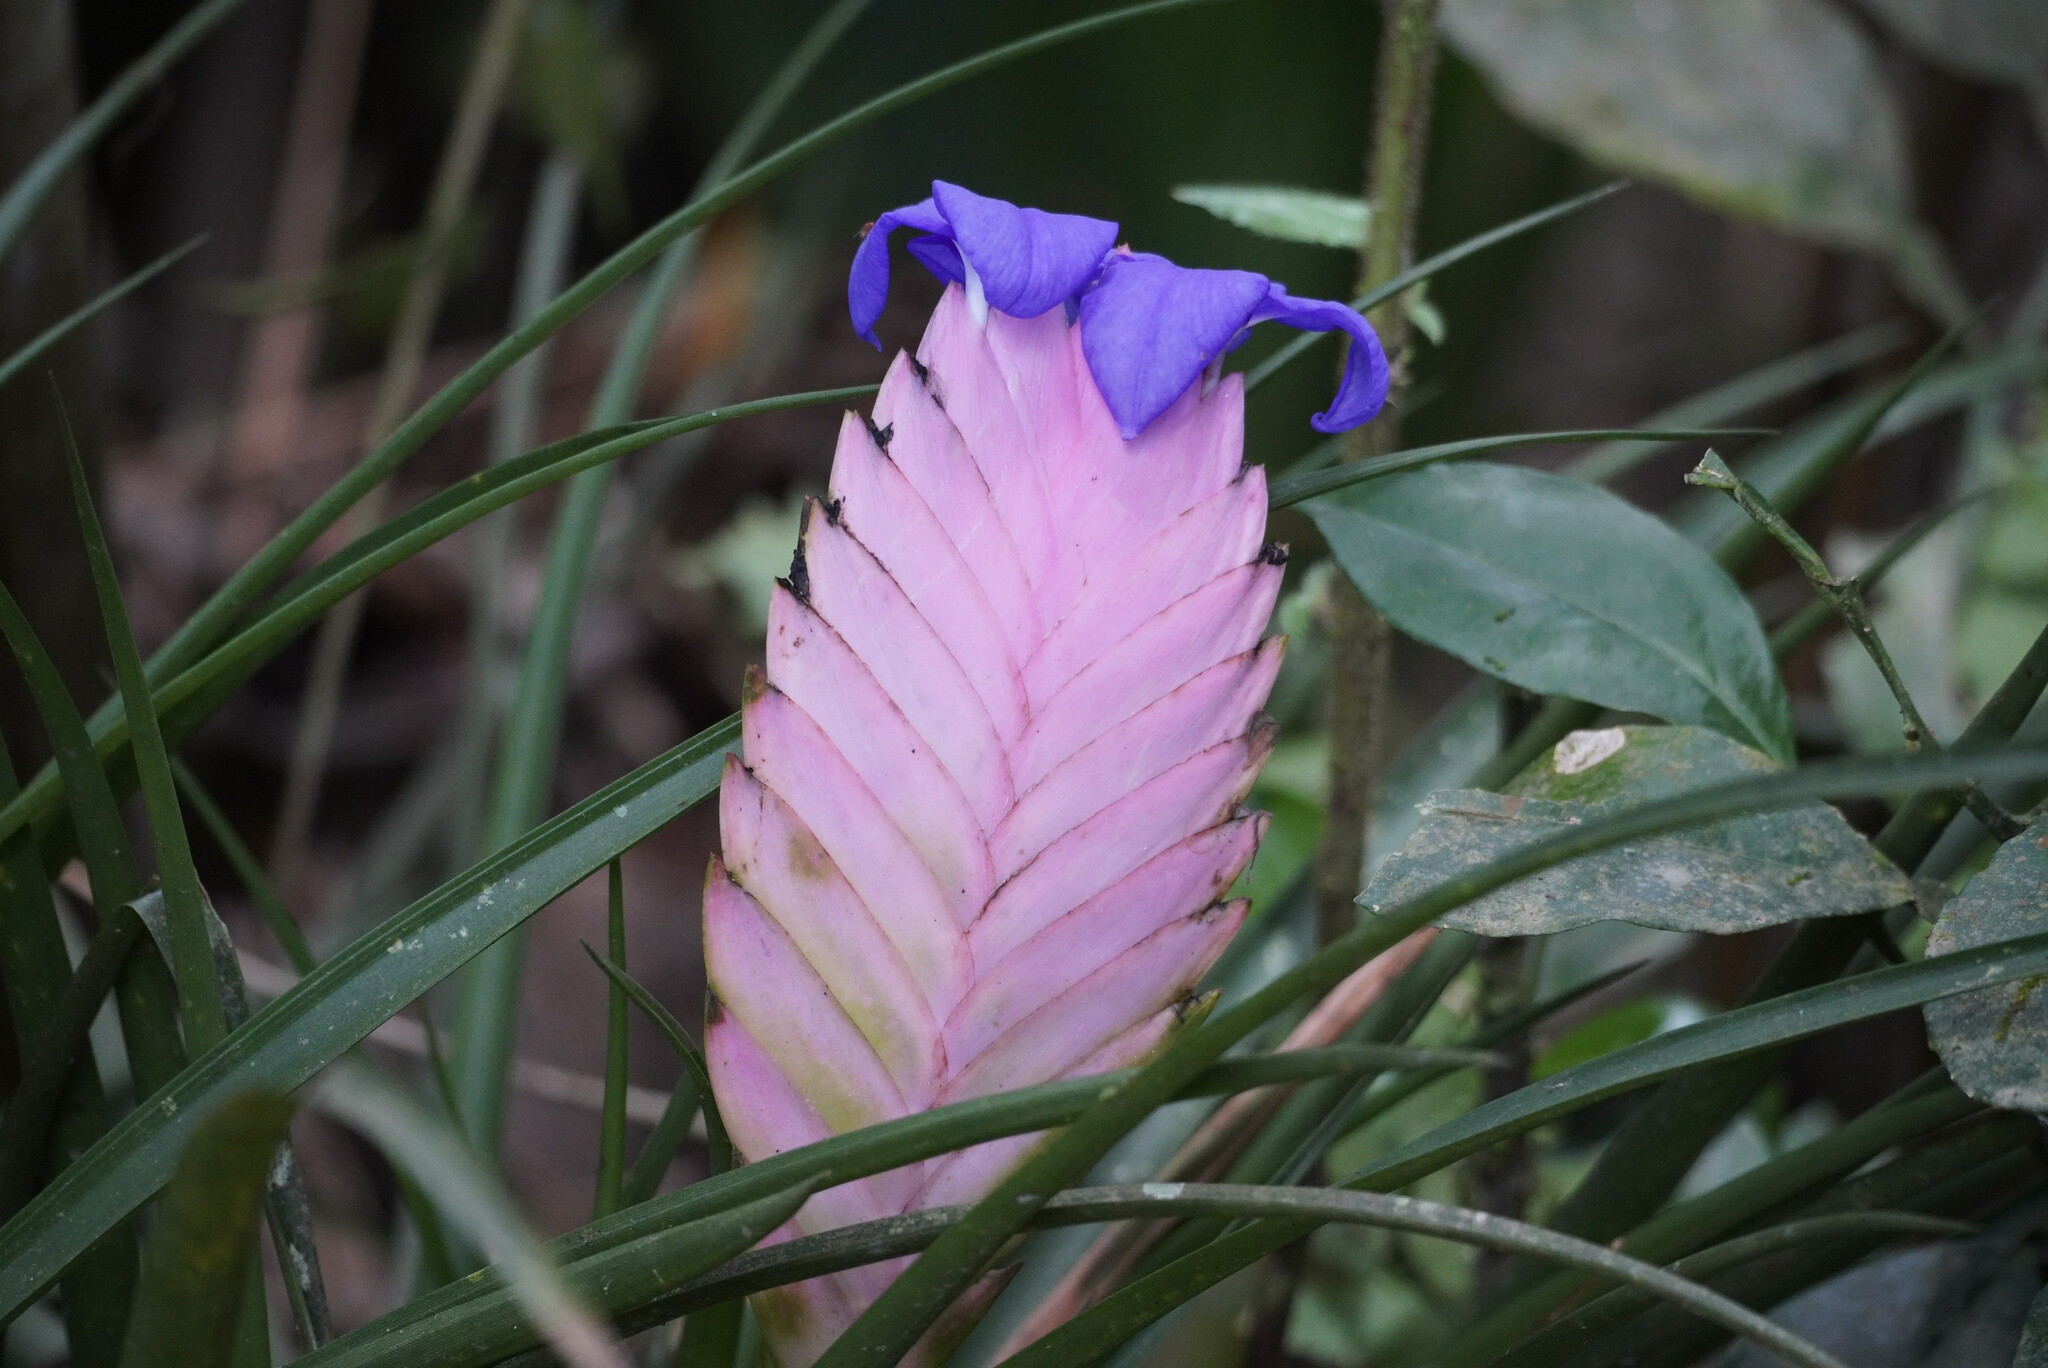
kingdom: Plantae
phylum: Tracheophyta
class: Liliopsida
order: Poales
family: Bromeliaceae
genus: Wallisia
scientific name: Wallisia cyanea
